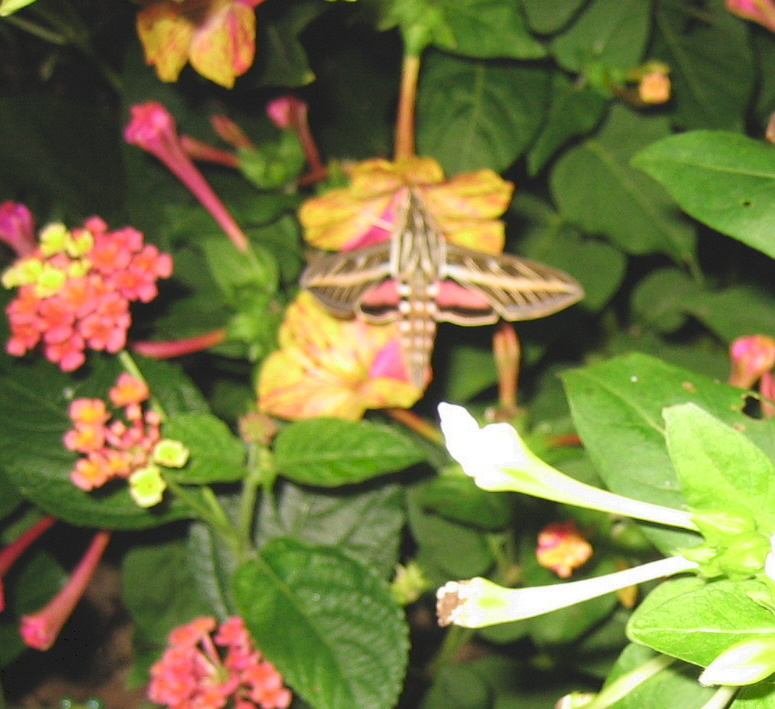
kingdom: Animalia
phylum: Arthropoda
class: Insecta
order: Lepidoptera
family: Sphingidae
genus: Hyles
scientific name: Hyles lineata
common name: White-lined sphinx
